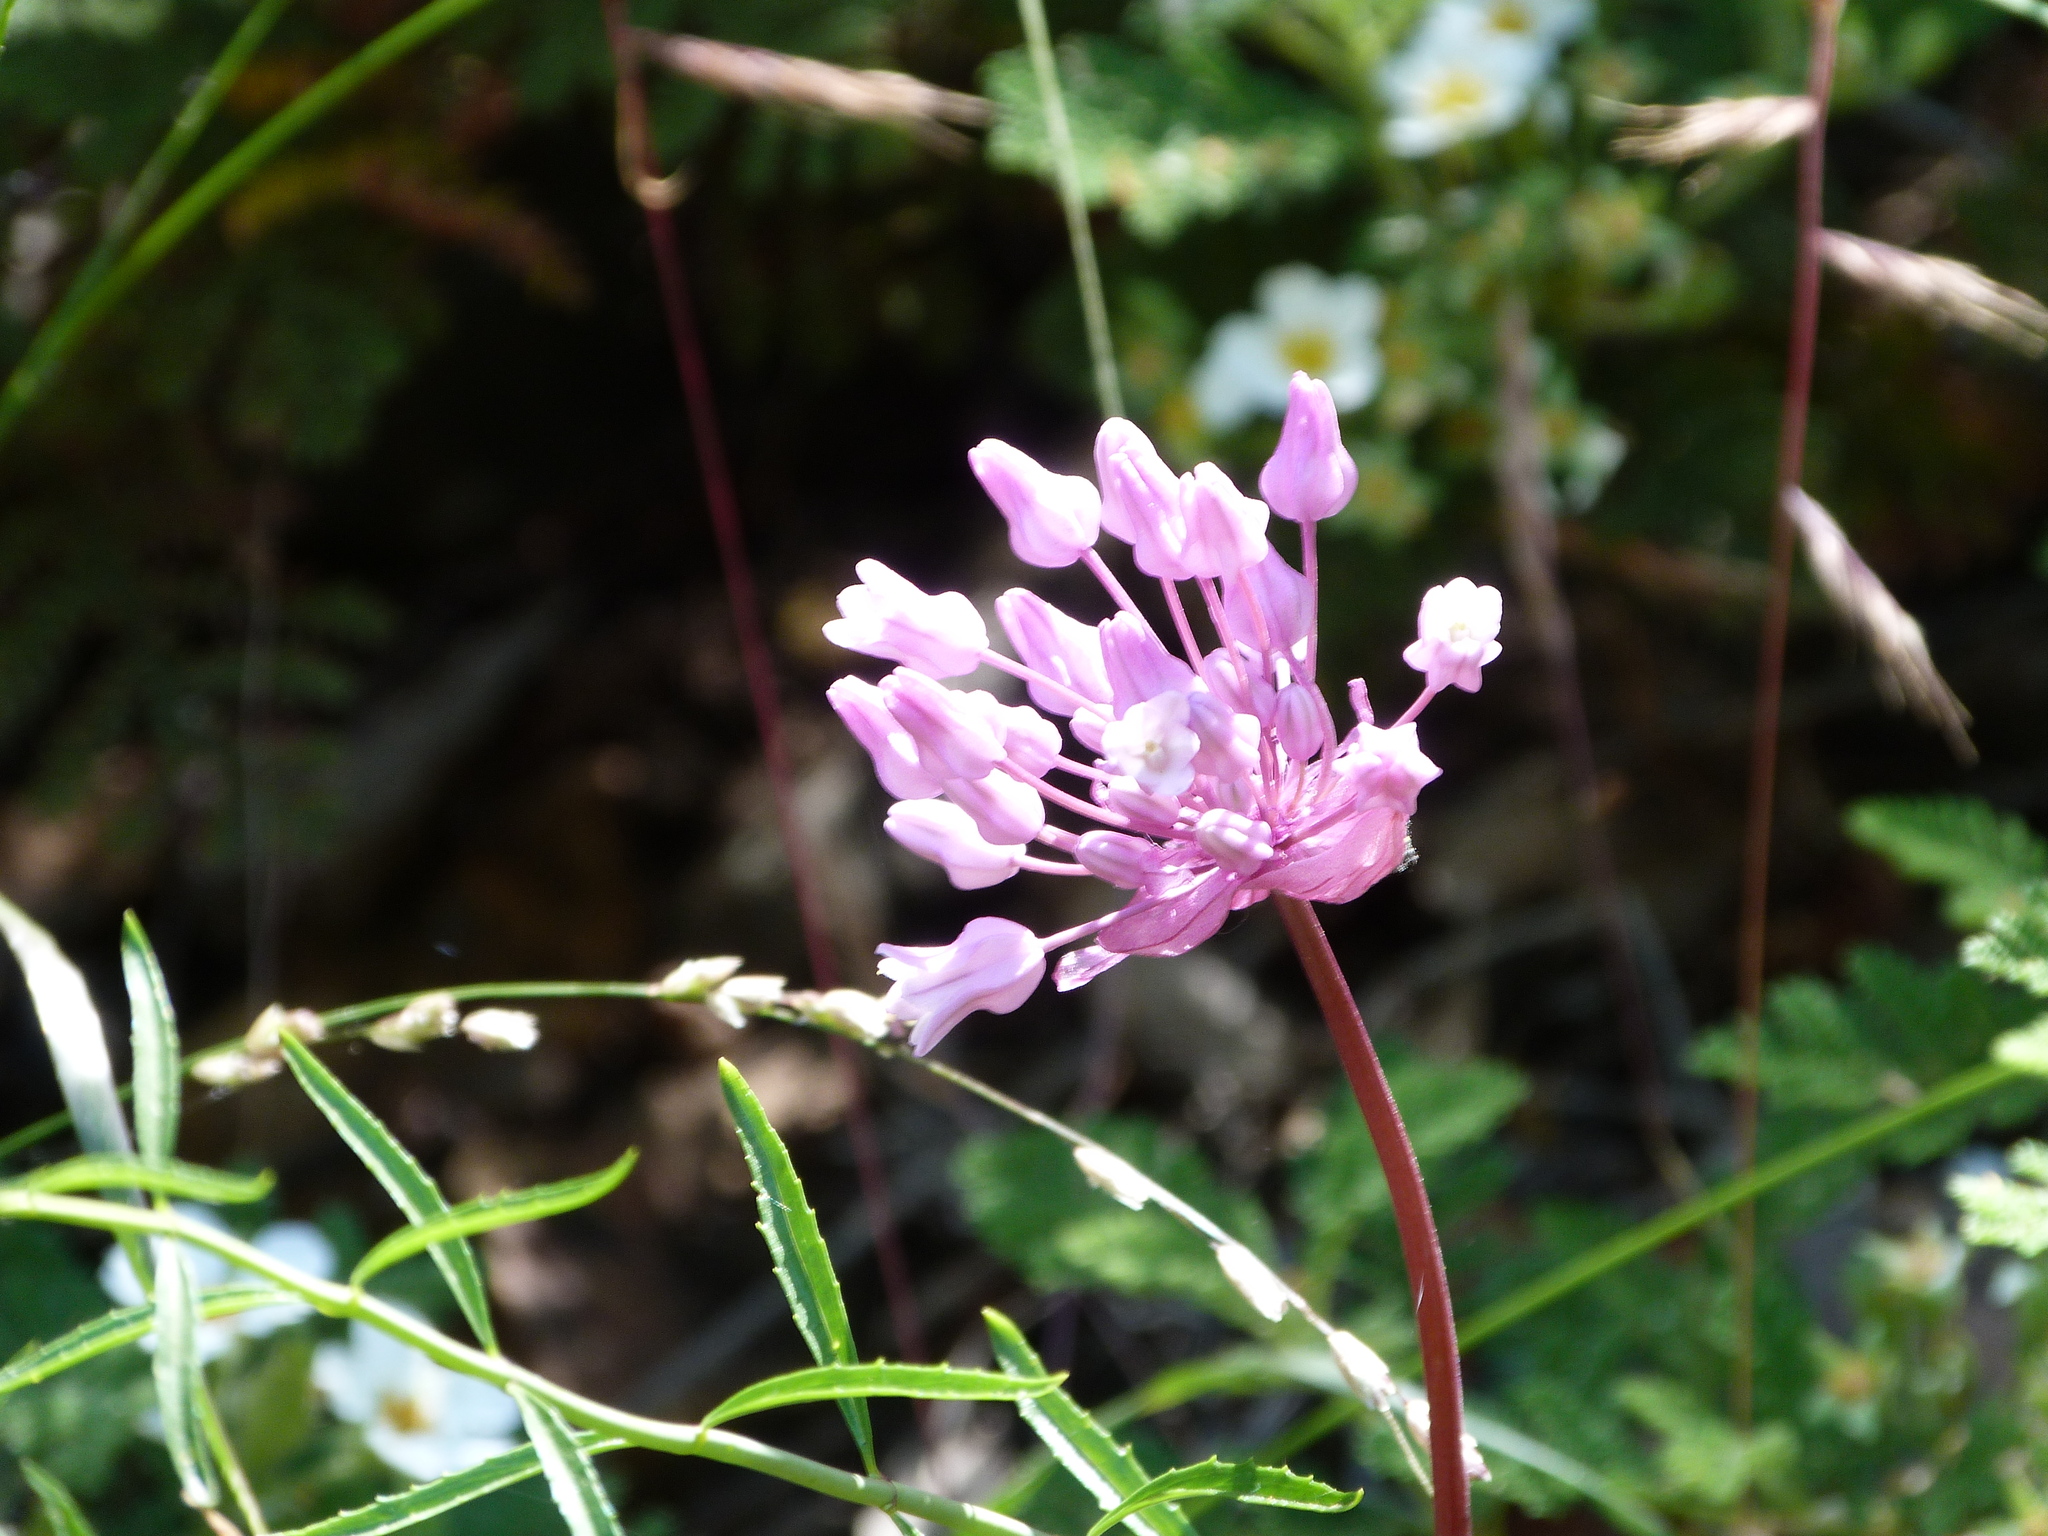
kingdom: Plantae
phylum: Tracheophyta
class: Liliopsida
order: Asparagales
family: Asparagaceae
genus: Dichelostemma
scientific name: Dichelostemma volubile
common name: Trining brodiaea
